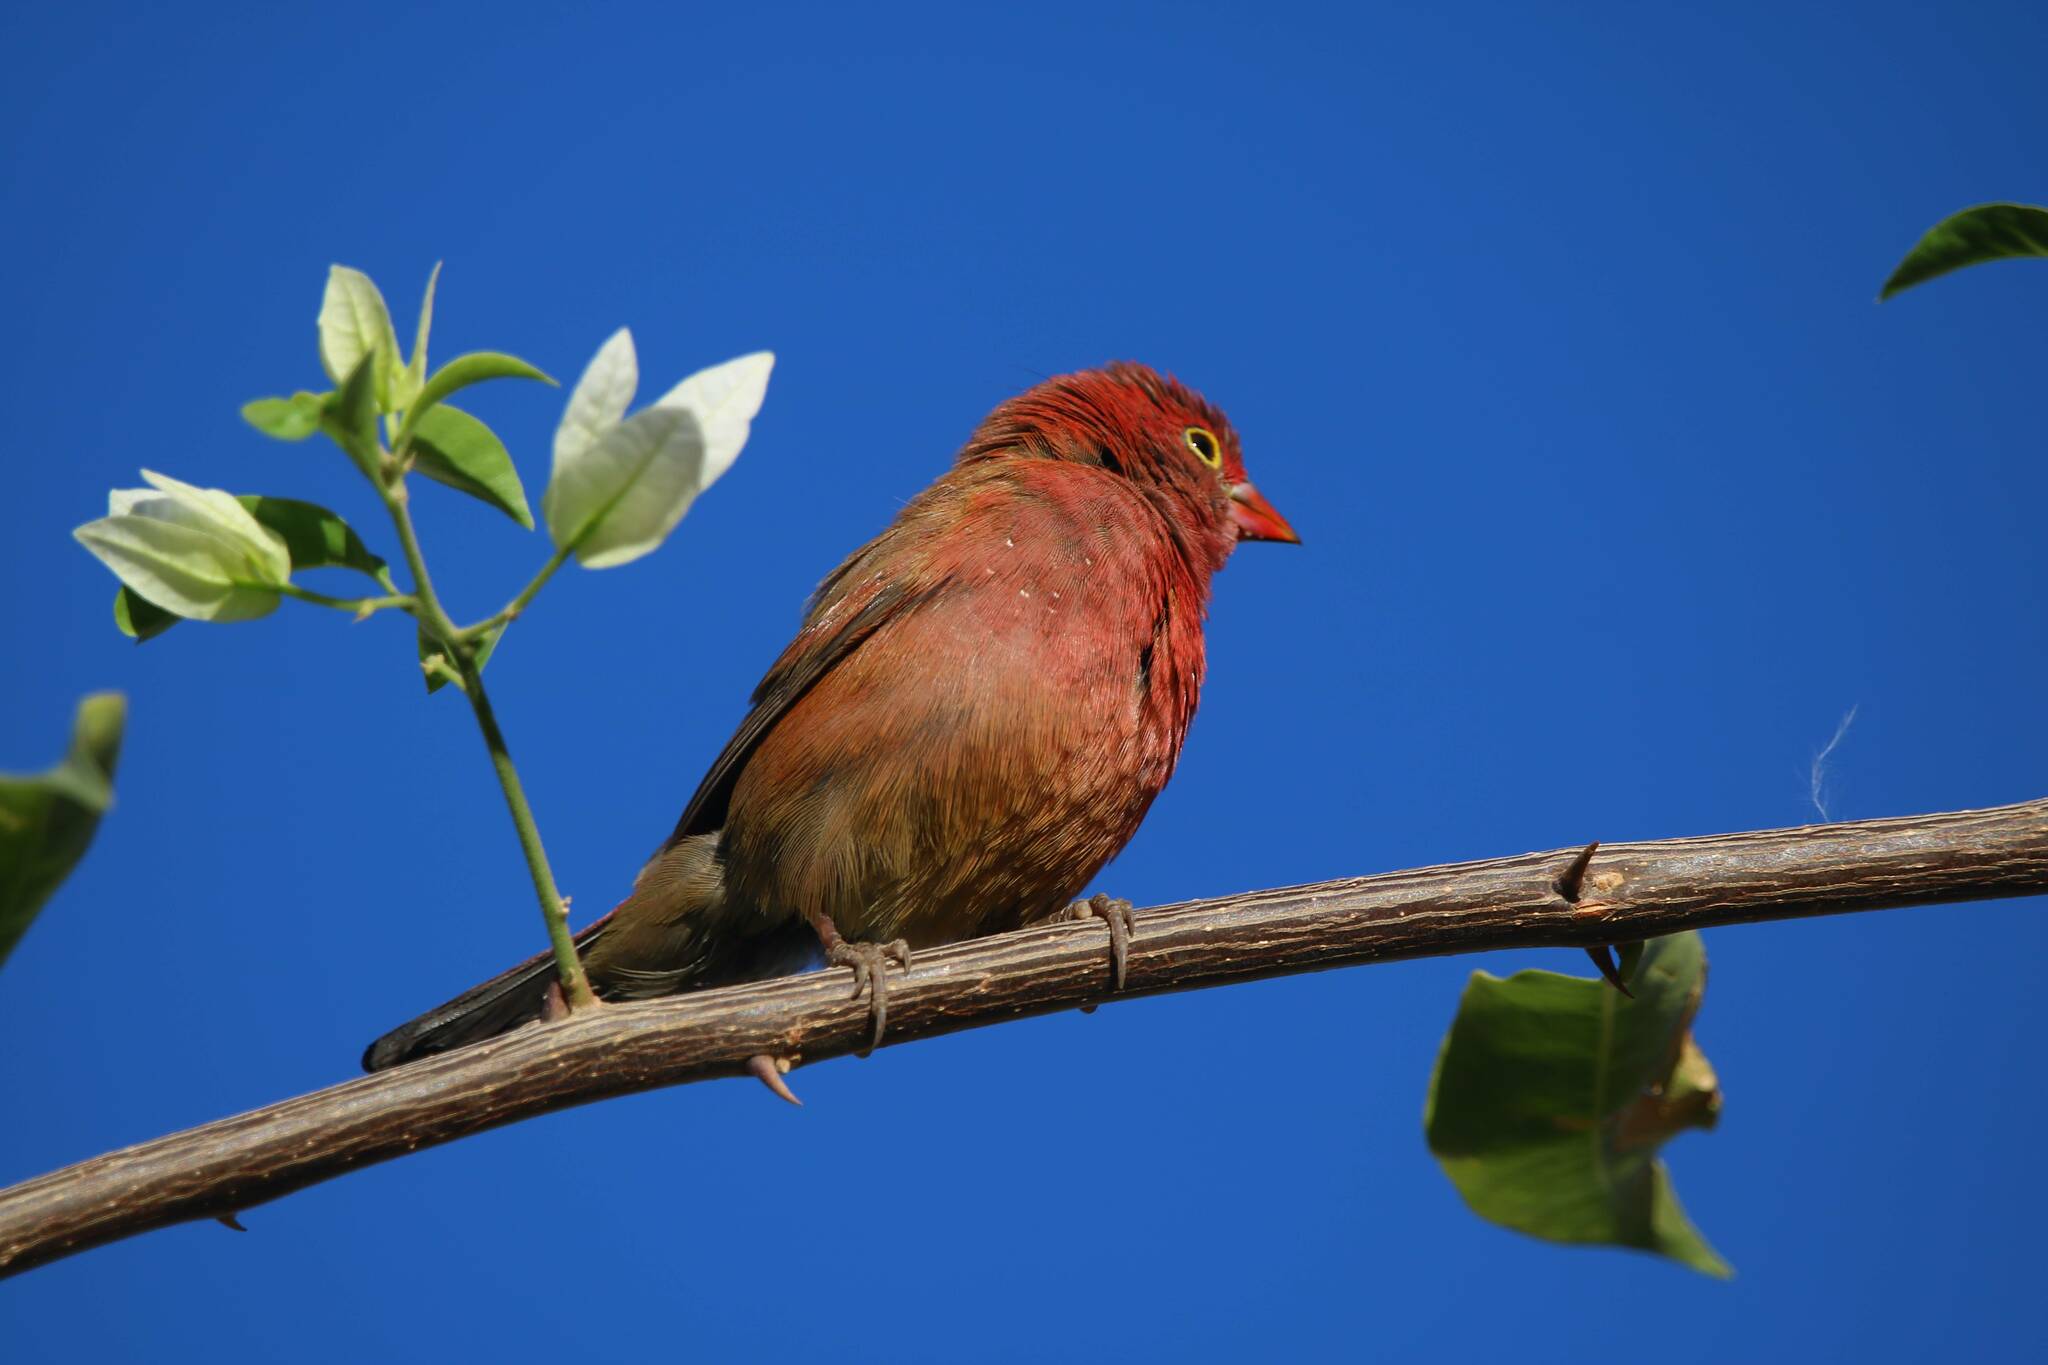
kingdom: Animalia
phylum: Chordata
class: Aves
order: Passeriformes
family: Estrildidae
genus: Lagonosticta
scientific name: Lagonosticta senegala
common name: Red-billed firefinch
